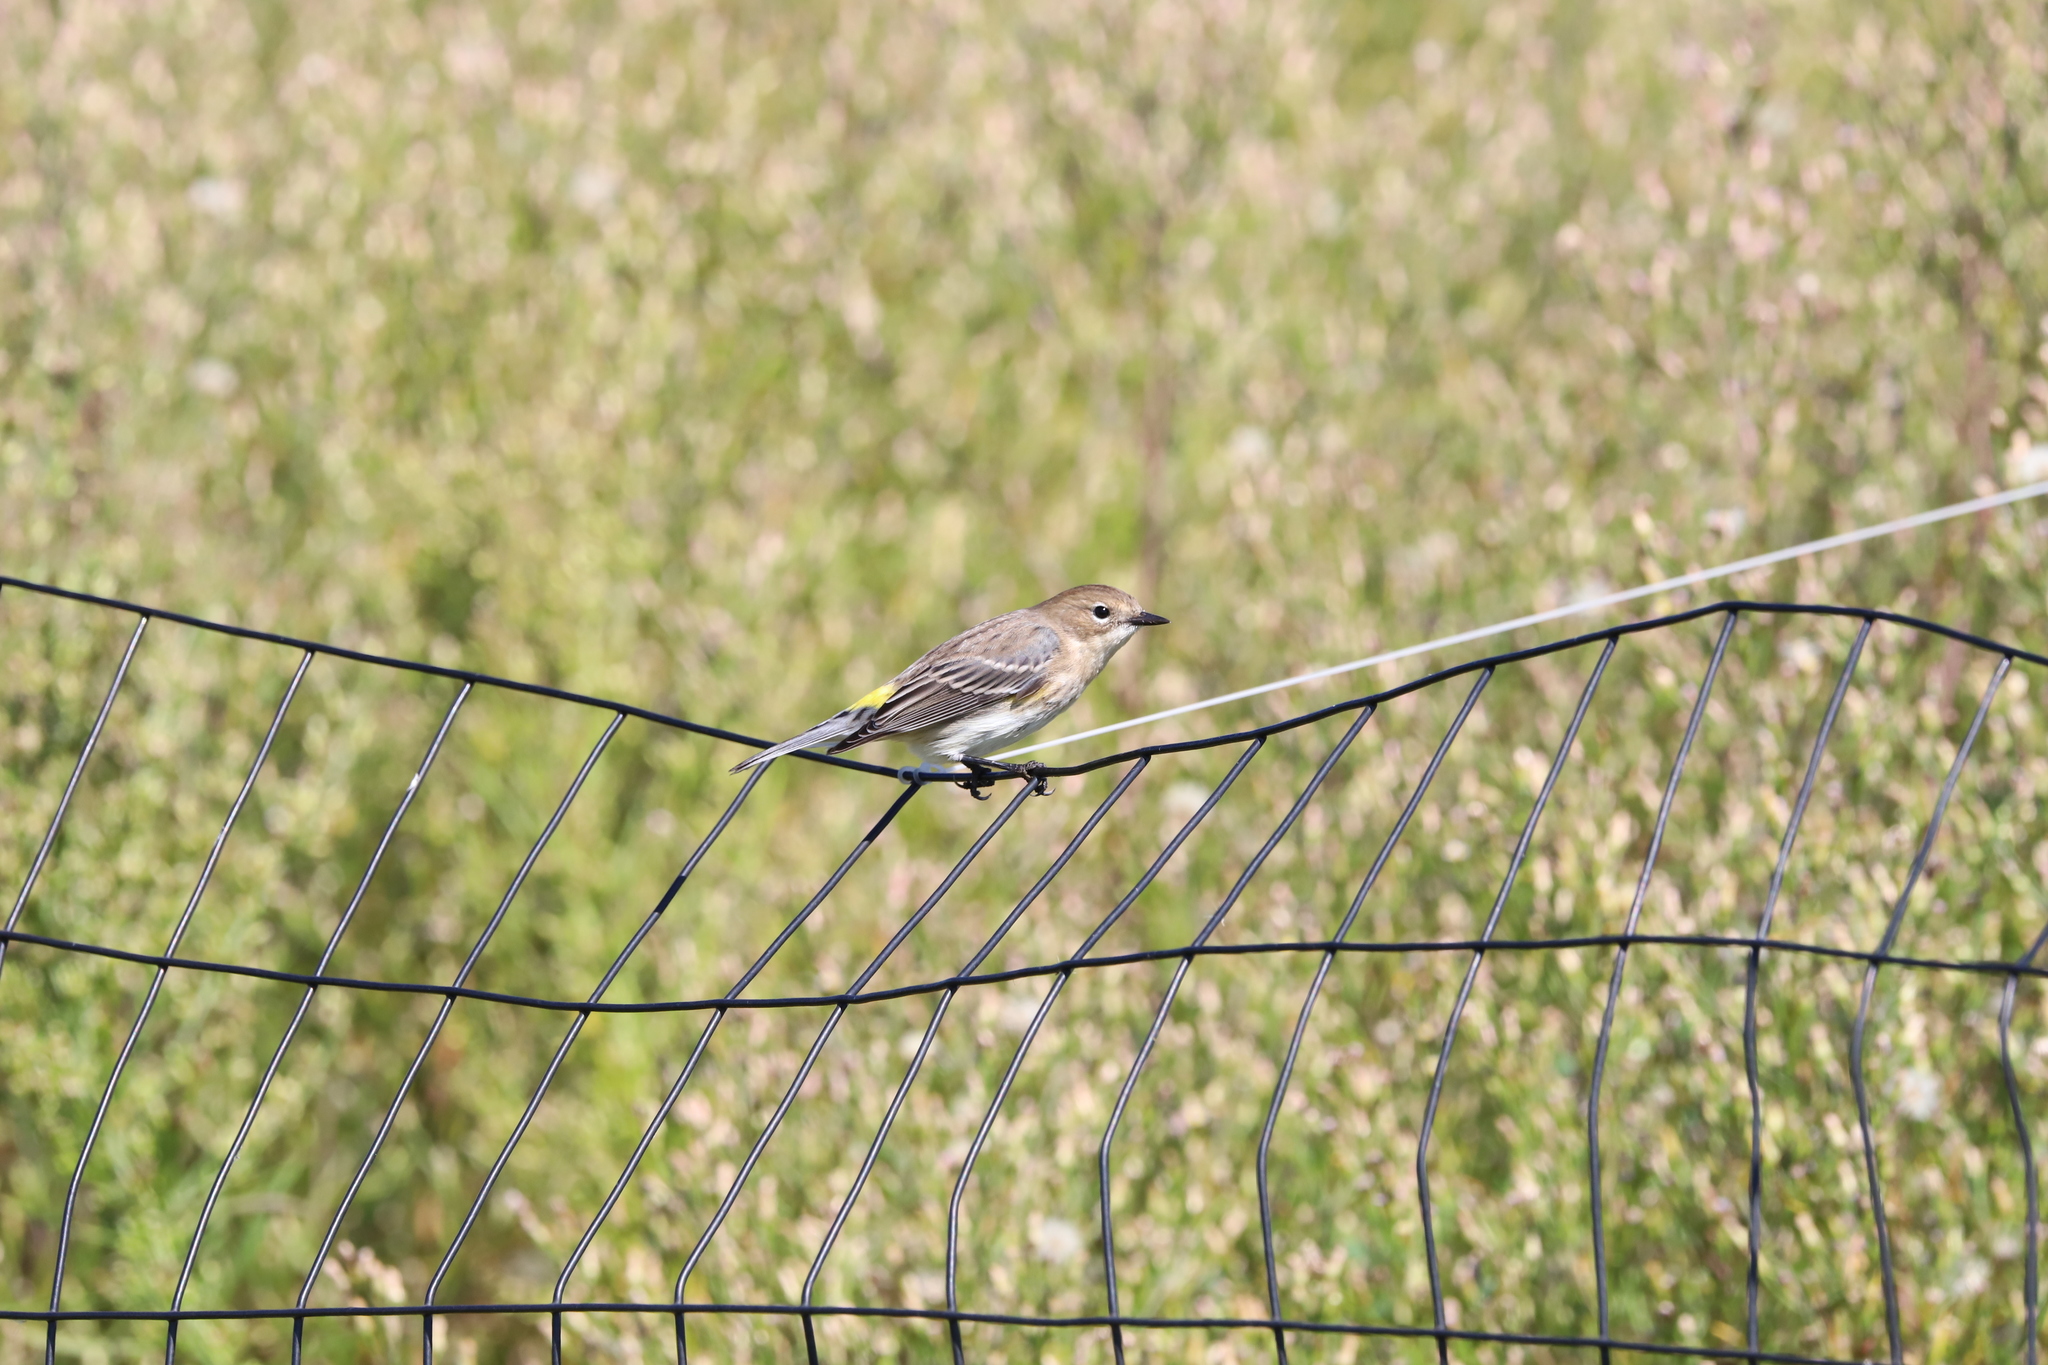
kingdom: Animalia
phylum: Chordata
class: Aves
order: Passeriformes
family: Parulidae
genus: Setophaga
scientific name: Setophaga coronata
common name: Myrtle warbler
